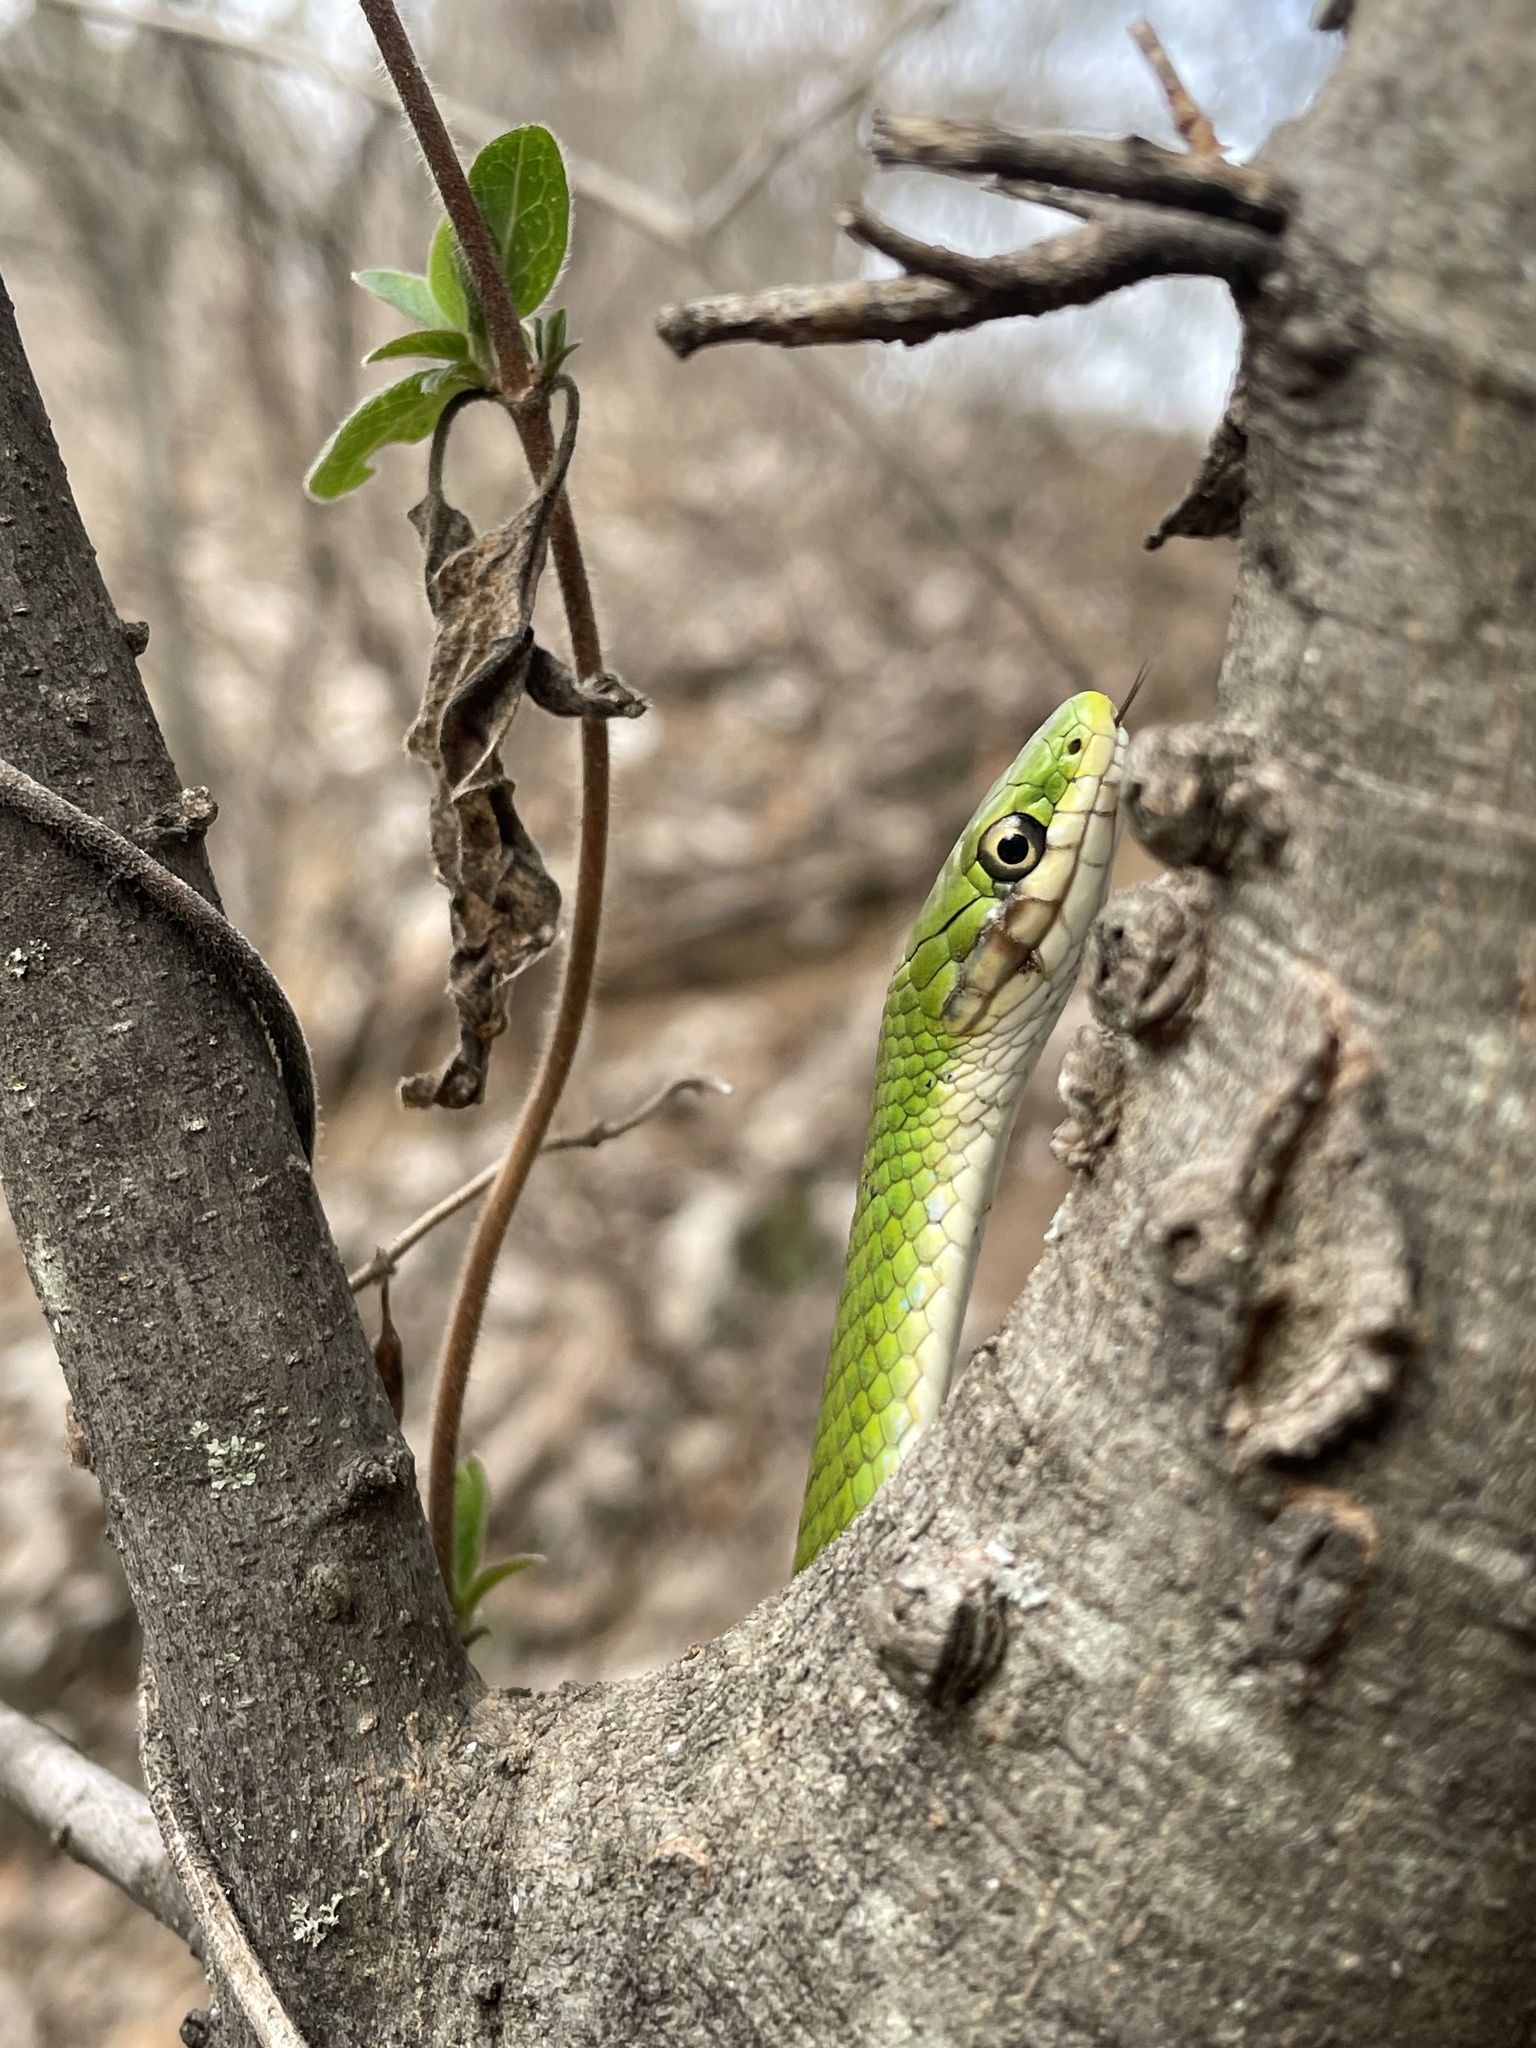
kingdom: Animalia
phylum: Chordata
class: Squamata
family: Colubridae
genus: Opheodrys
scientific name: Opheodrys aestivus
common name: Rough greensnake
